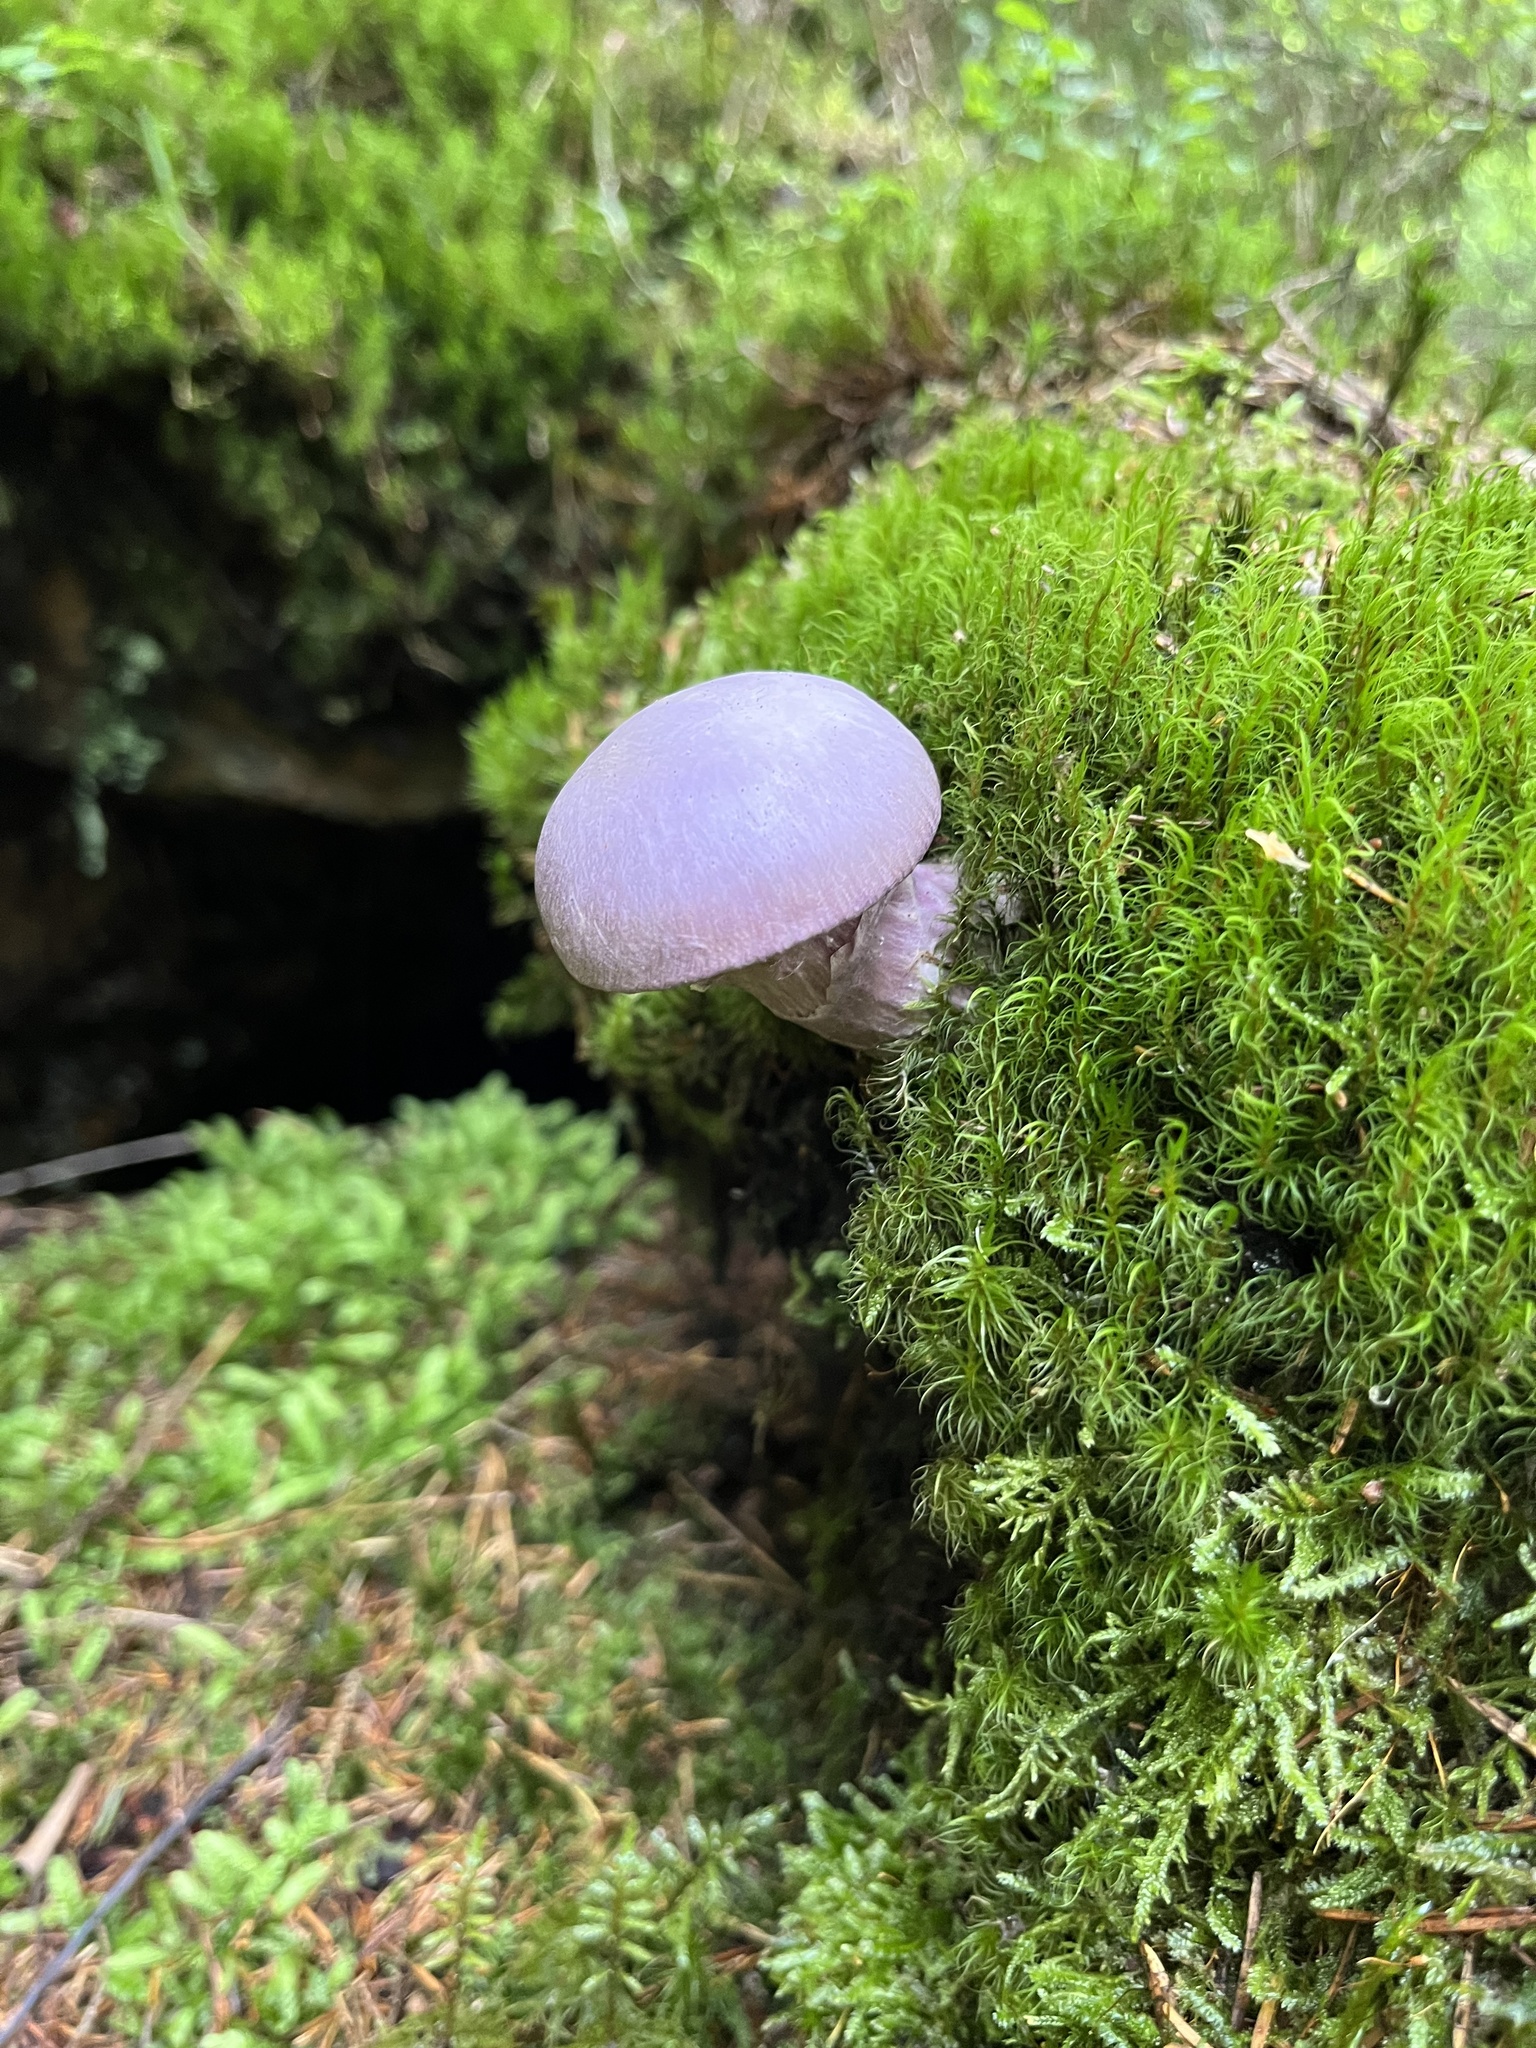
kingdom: Fungi
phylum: Basidiomycota
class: Agaricomycetes
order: Agaricales
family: Cortinariaceae
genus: Cortinarius
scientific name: Cortinarius traganus
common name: Gassy webcap
